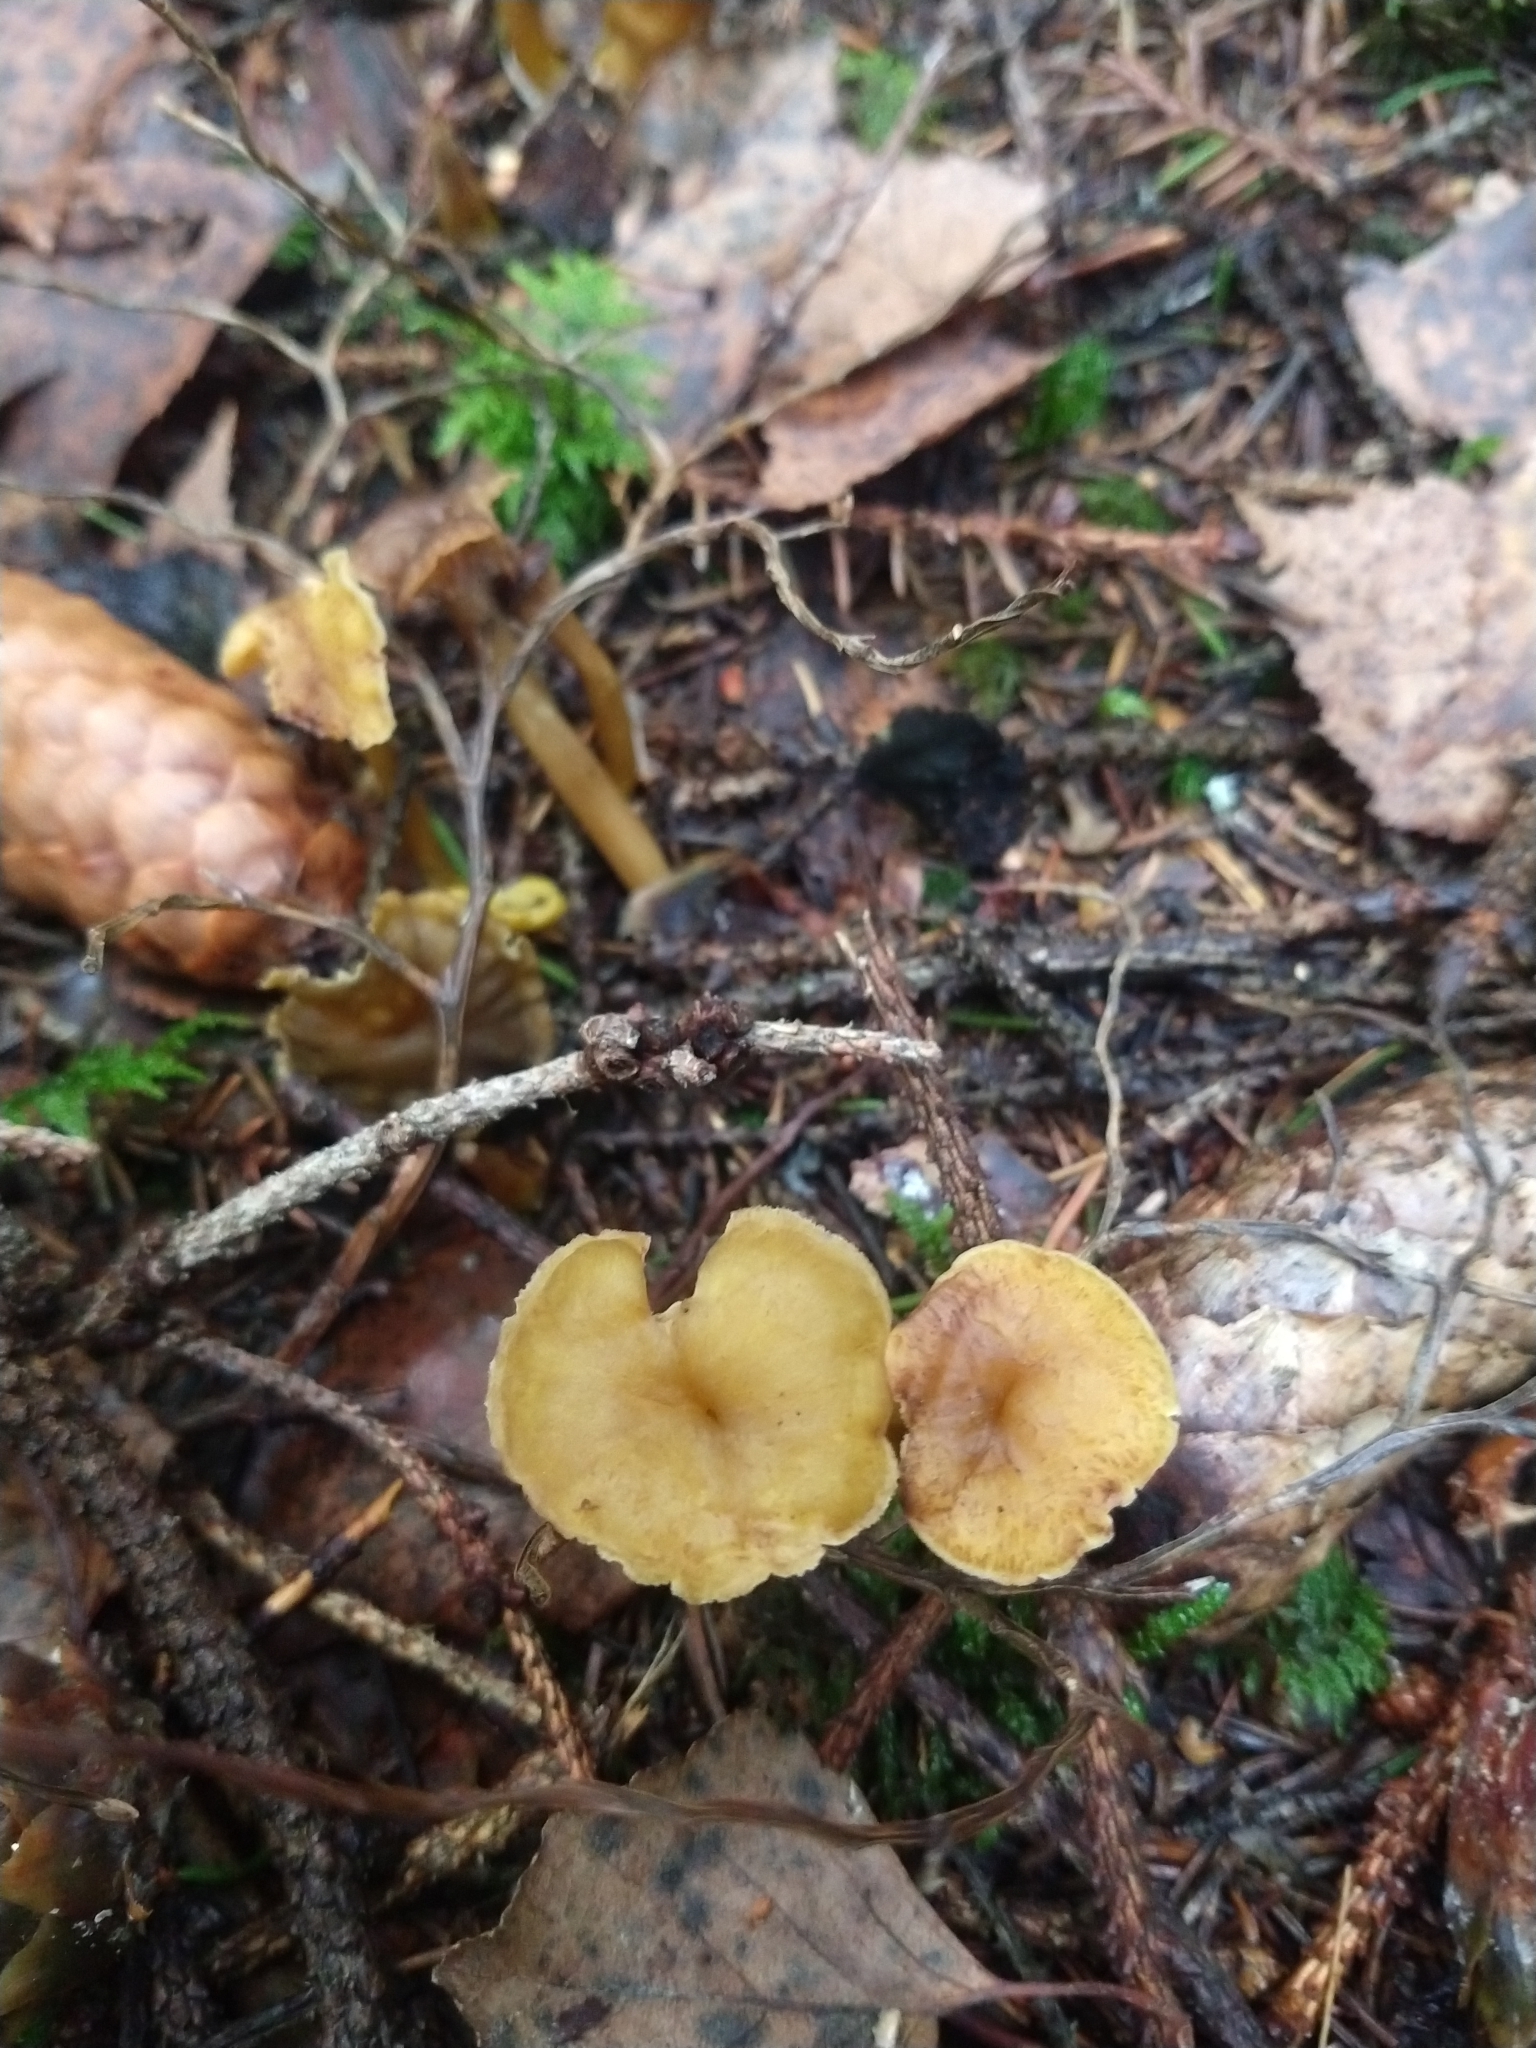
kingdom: Fungi
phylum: Basidiomycota
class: Agaricomycetes
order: Cantharellales
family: Hydnaceae
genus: Craterellus
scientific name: Craterellus tubaeformis
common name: Yellowfoot
